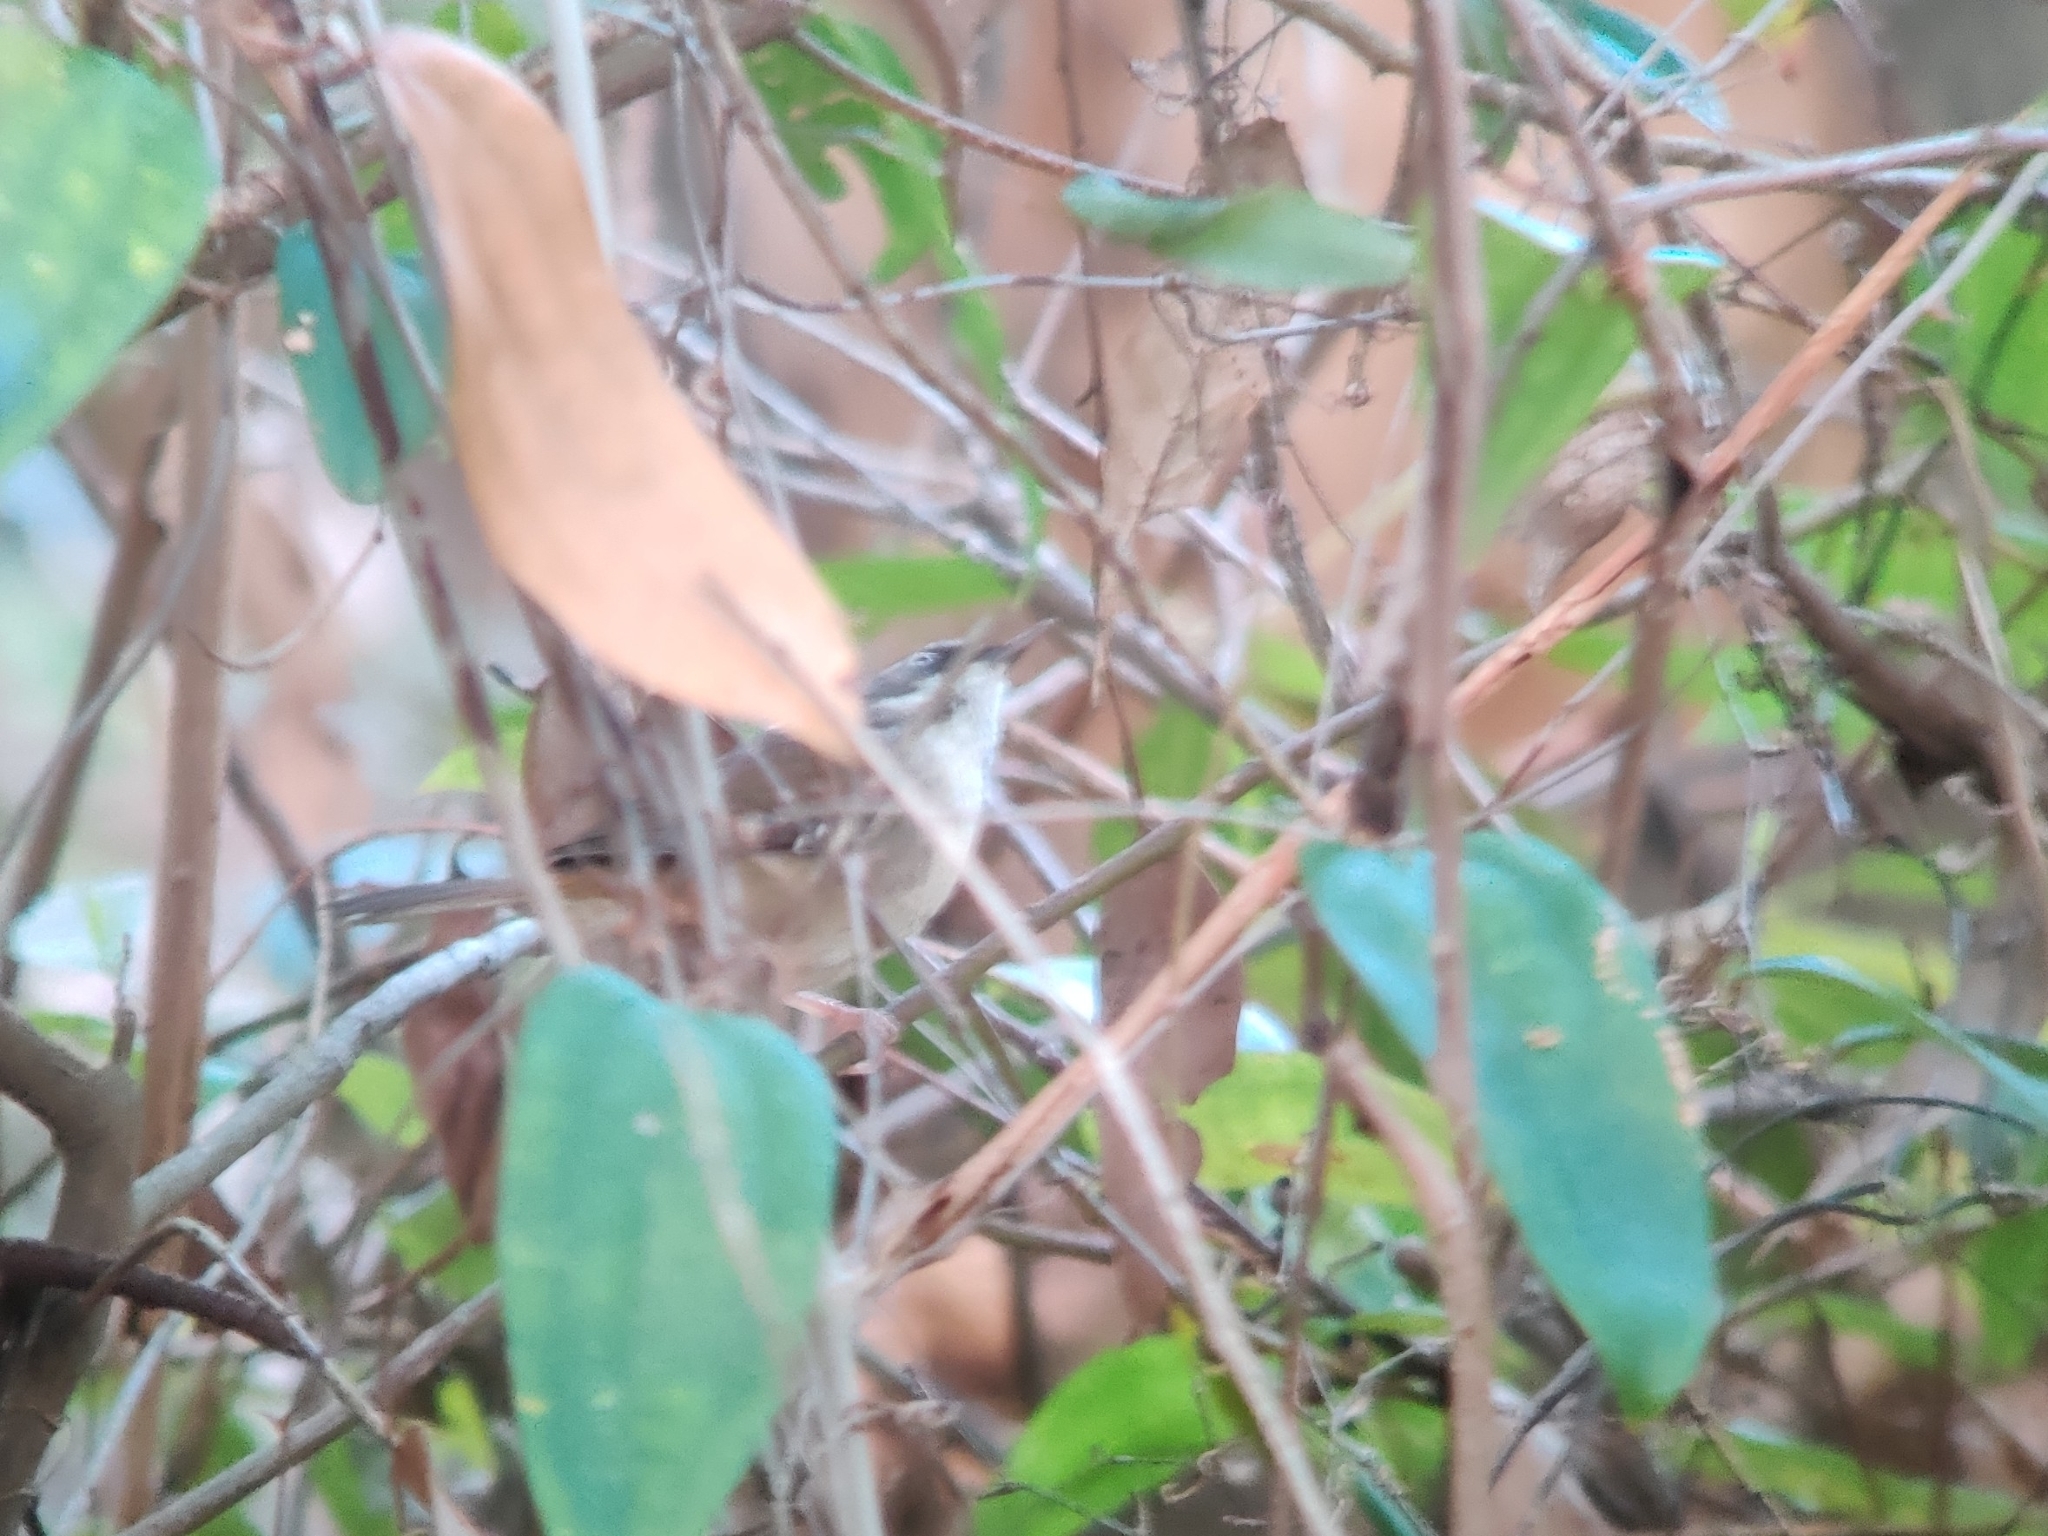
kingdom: Animalia
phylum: Chordata
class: Aves
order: Passeriformes
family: Acanthizidae
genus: Sericornis
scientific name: Sericornis frontalis
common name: White-browed scrubwren
